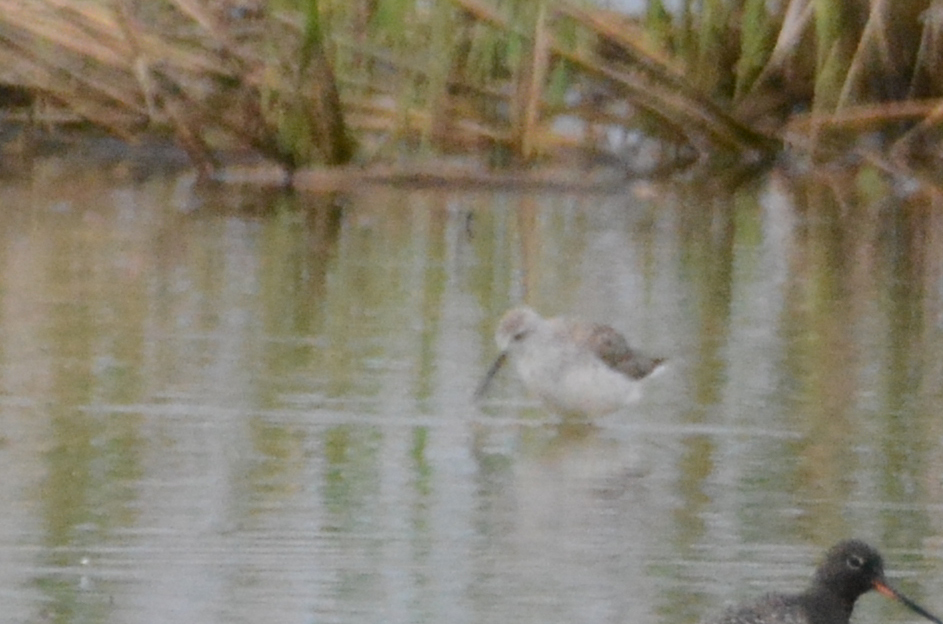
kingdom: Animalia
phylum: Chordata
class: Aves
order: Charadriiformes
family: Scolopacidae
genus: Tringa
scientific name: Tringa stagnatilis
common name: Marsh sandpiper
